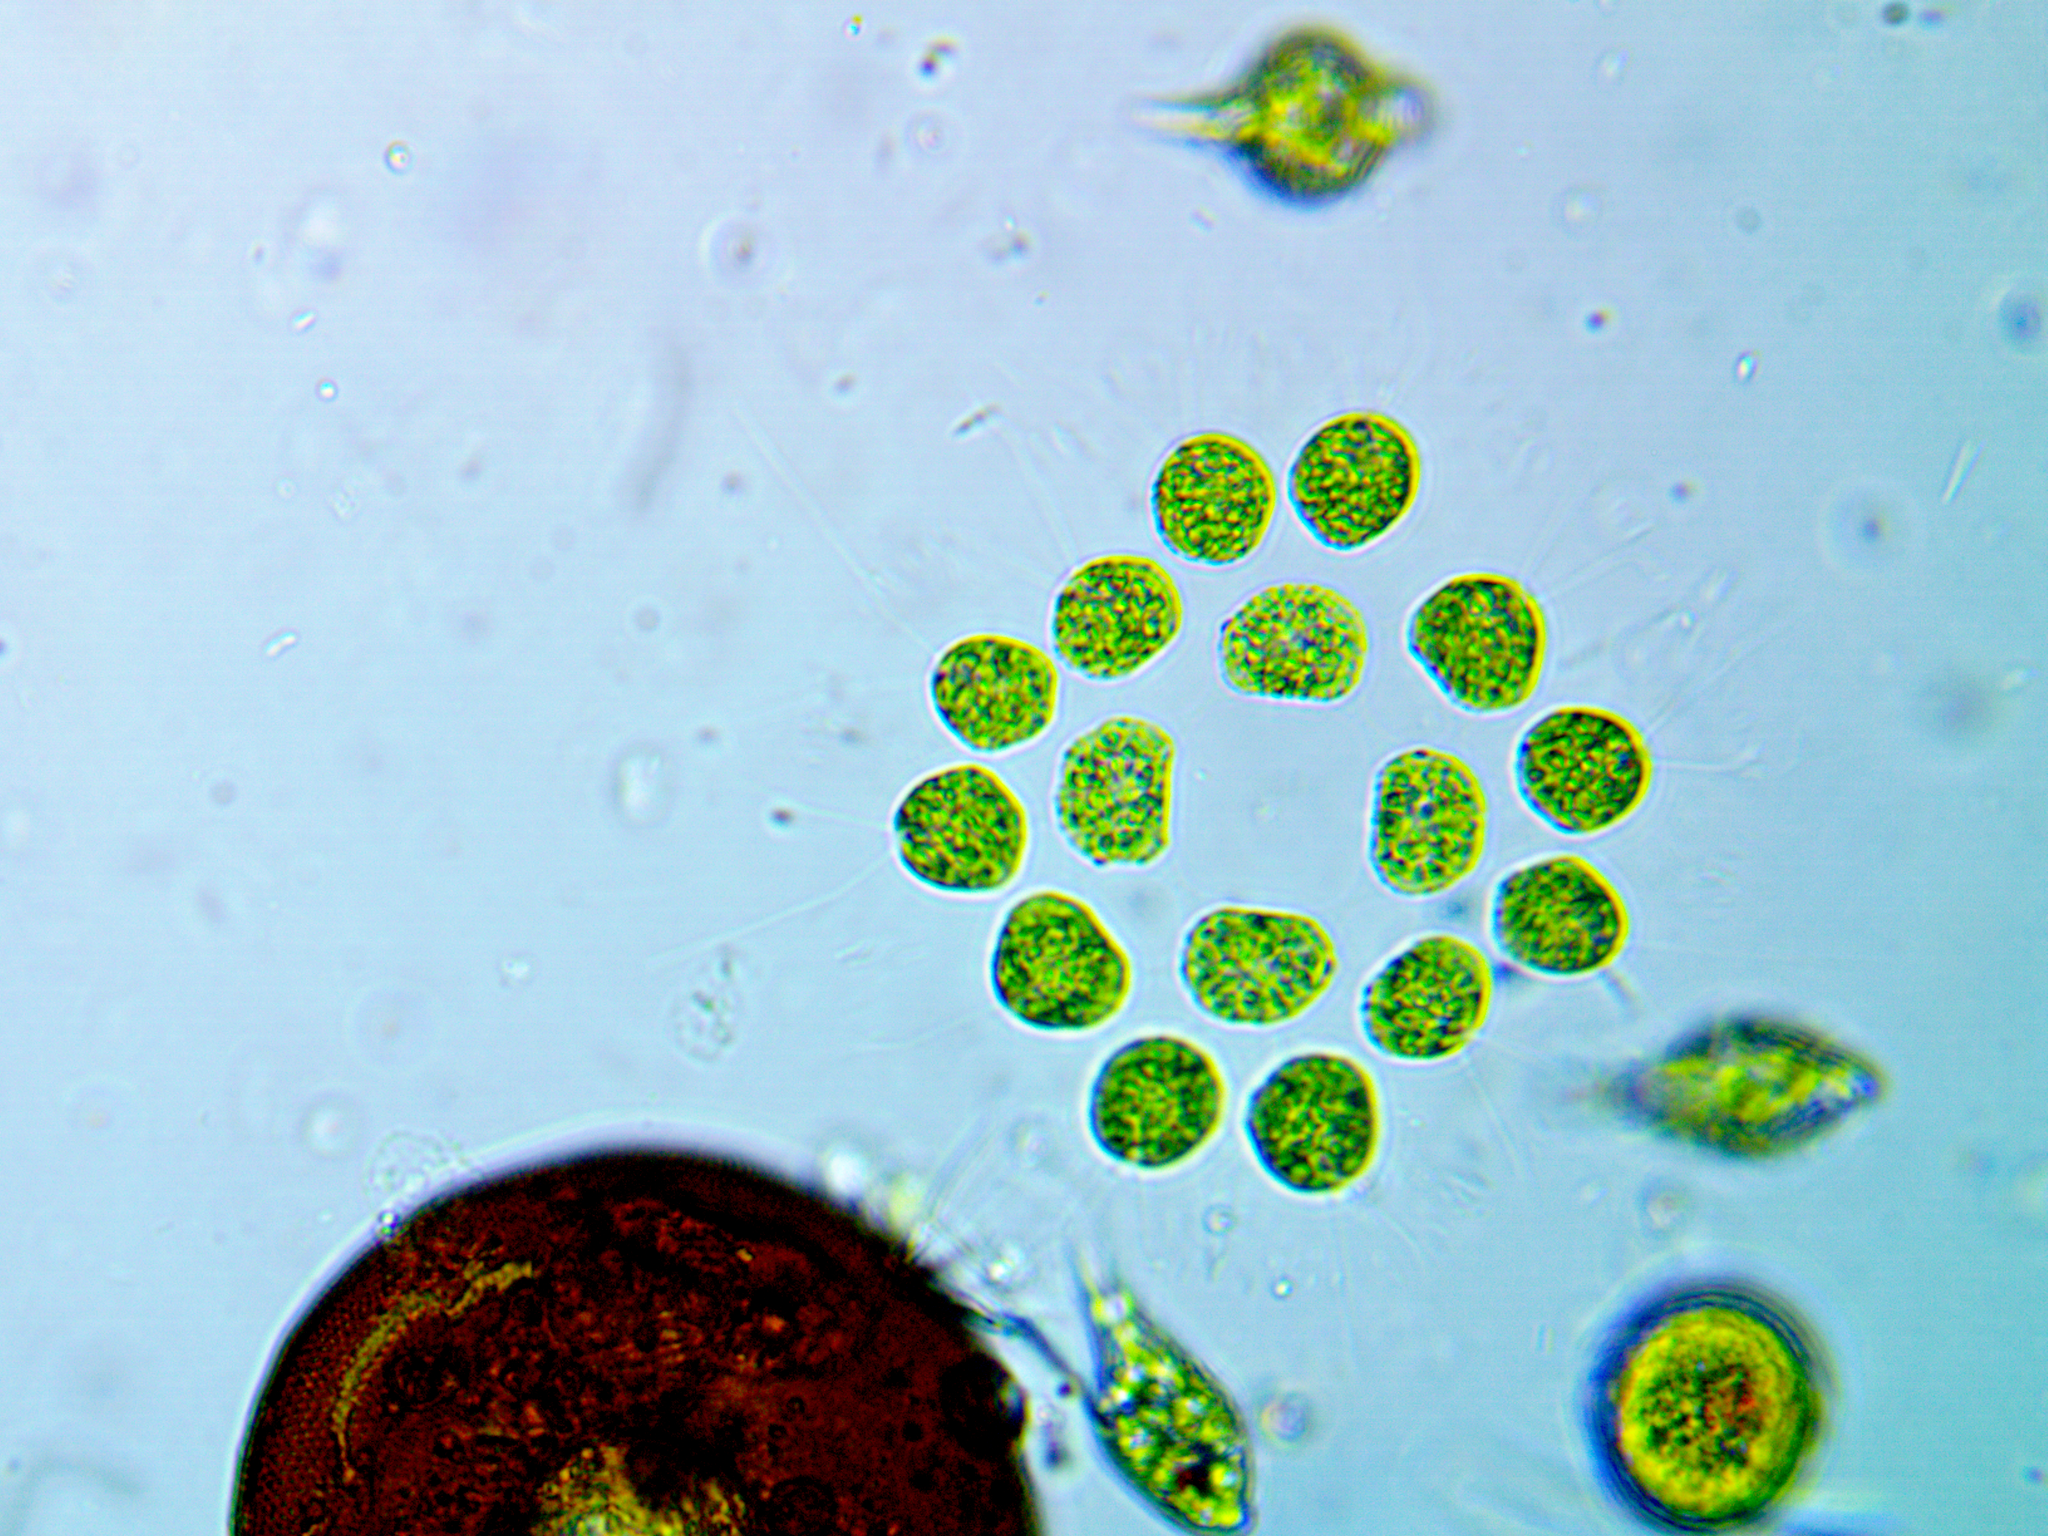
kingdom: Plantae
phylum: Chlorophyta
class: Chlorophyceae
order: Volvocales
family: Goniaceae
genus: Gonium
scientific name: Gonium pectorale
